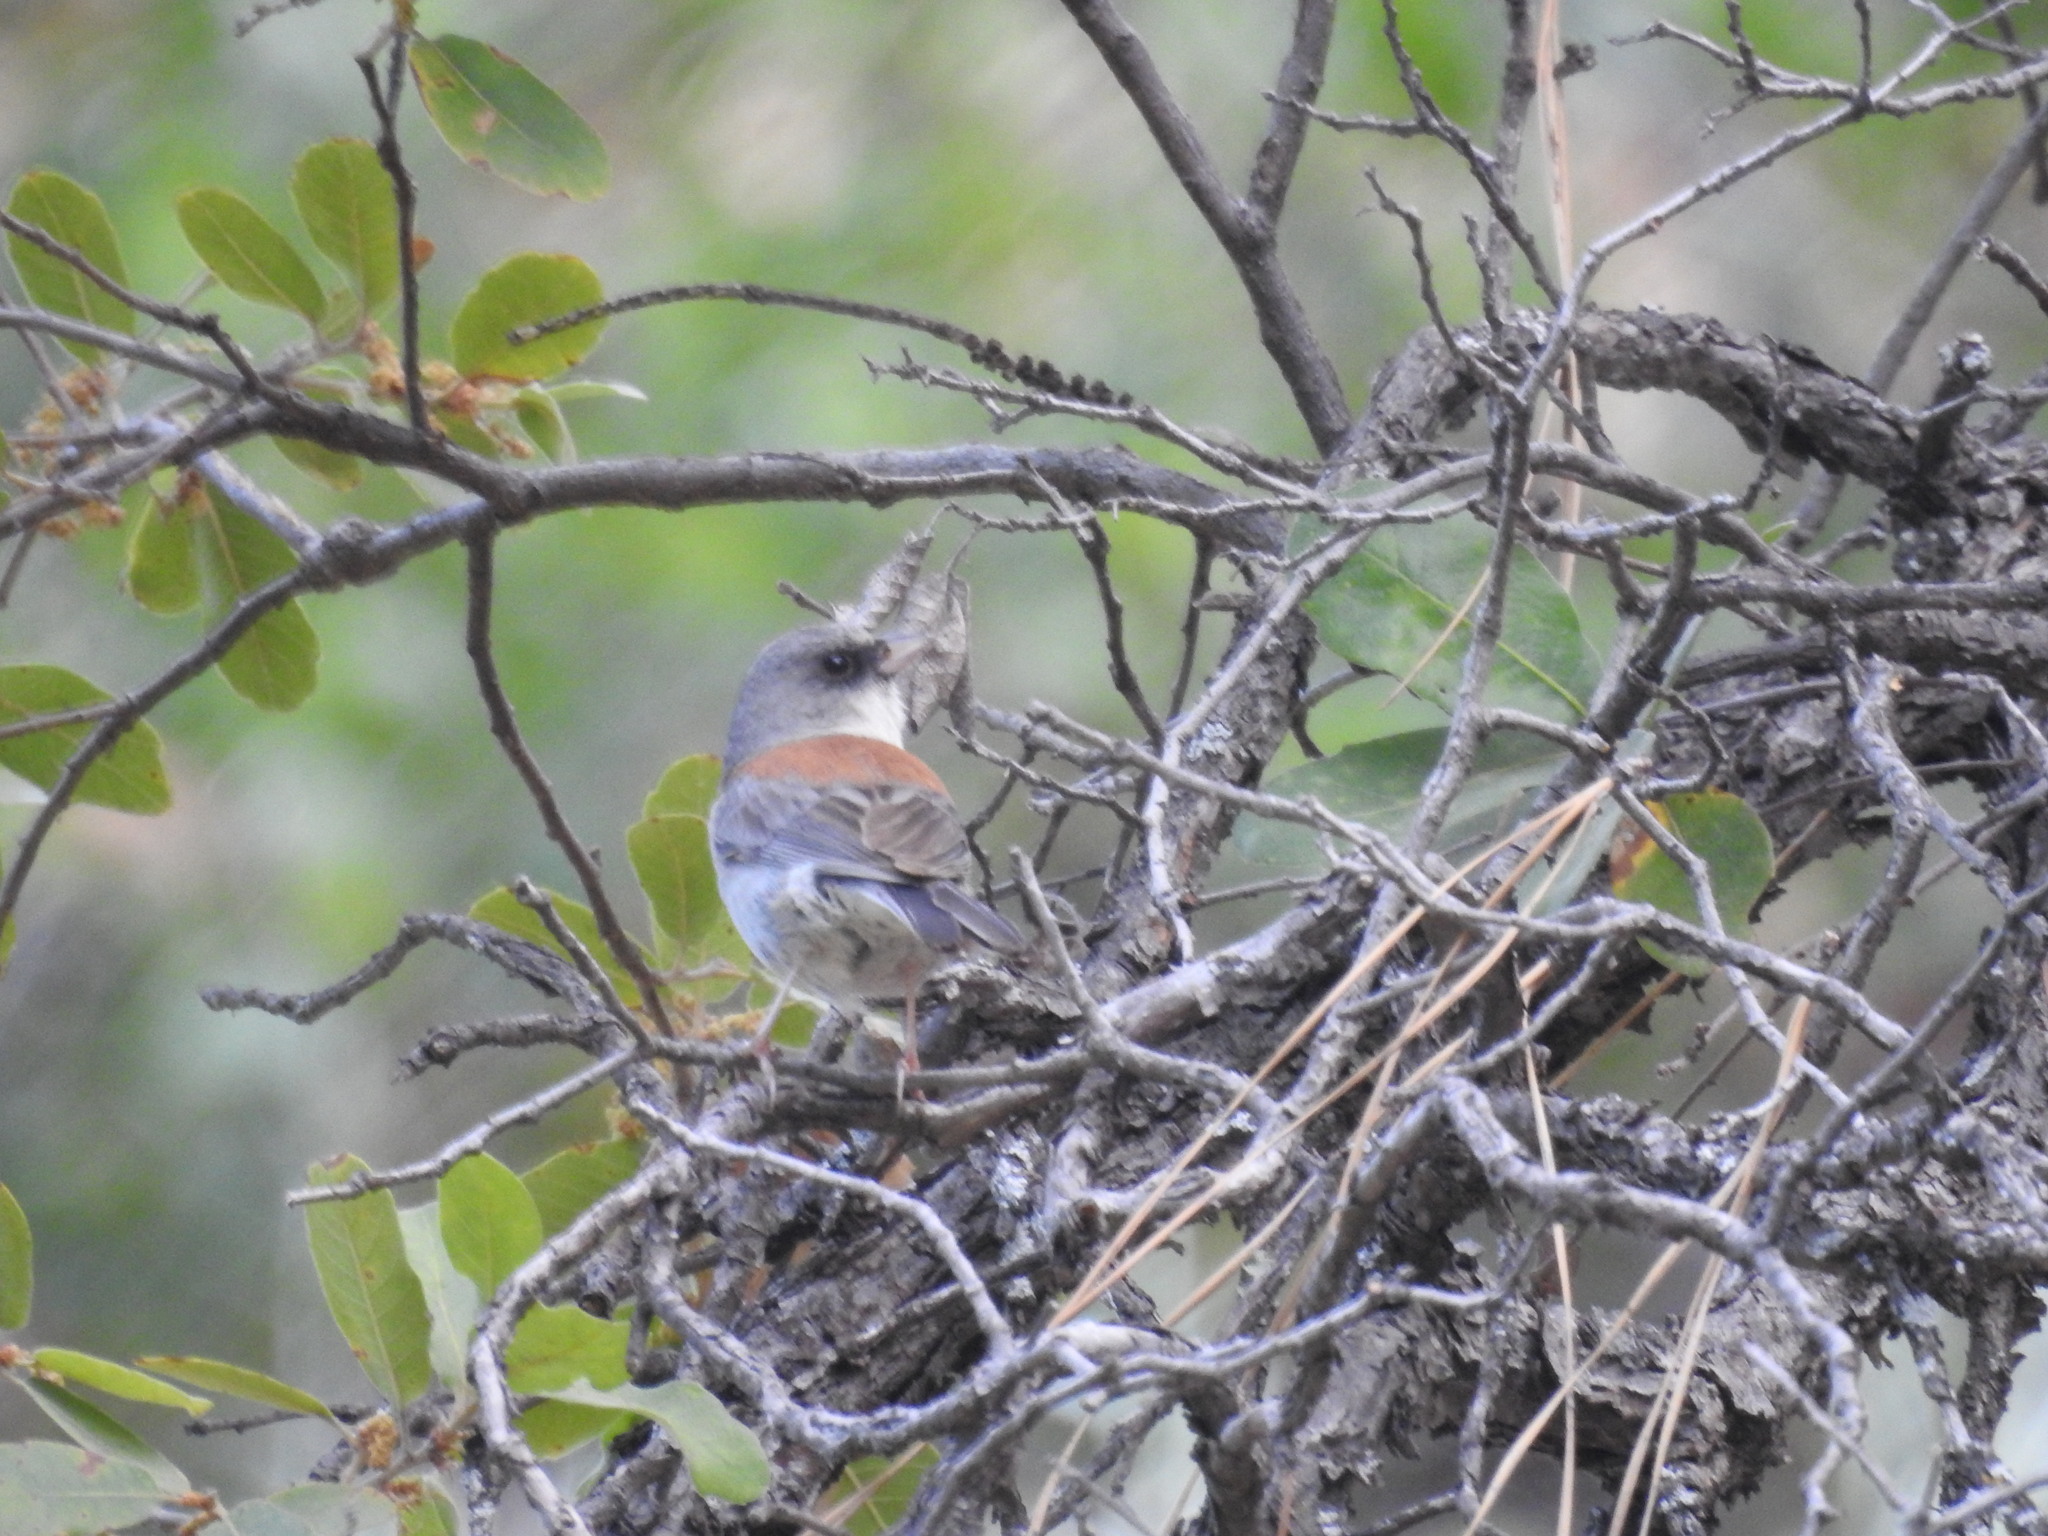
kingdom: Animalia
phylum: Chordata
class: Aves
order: Passeriformes
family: Passerellidae
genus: Junco
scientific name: Junco hyemalis
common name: Dark-eyed junco
